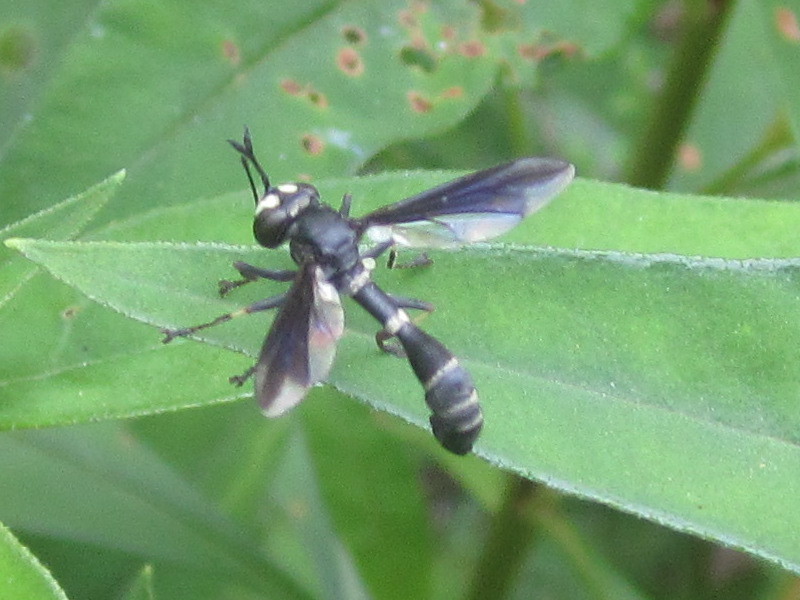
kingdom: Animalia
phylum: Arthropoda
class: Insecta
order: Diptera
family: Conopidae
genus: Physocephala
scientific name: Physocephala tibialis
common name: Common eastern physocephala
